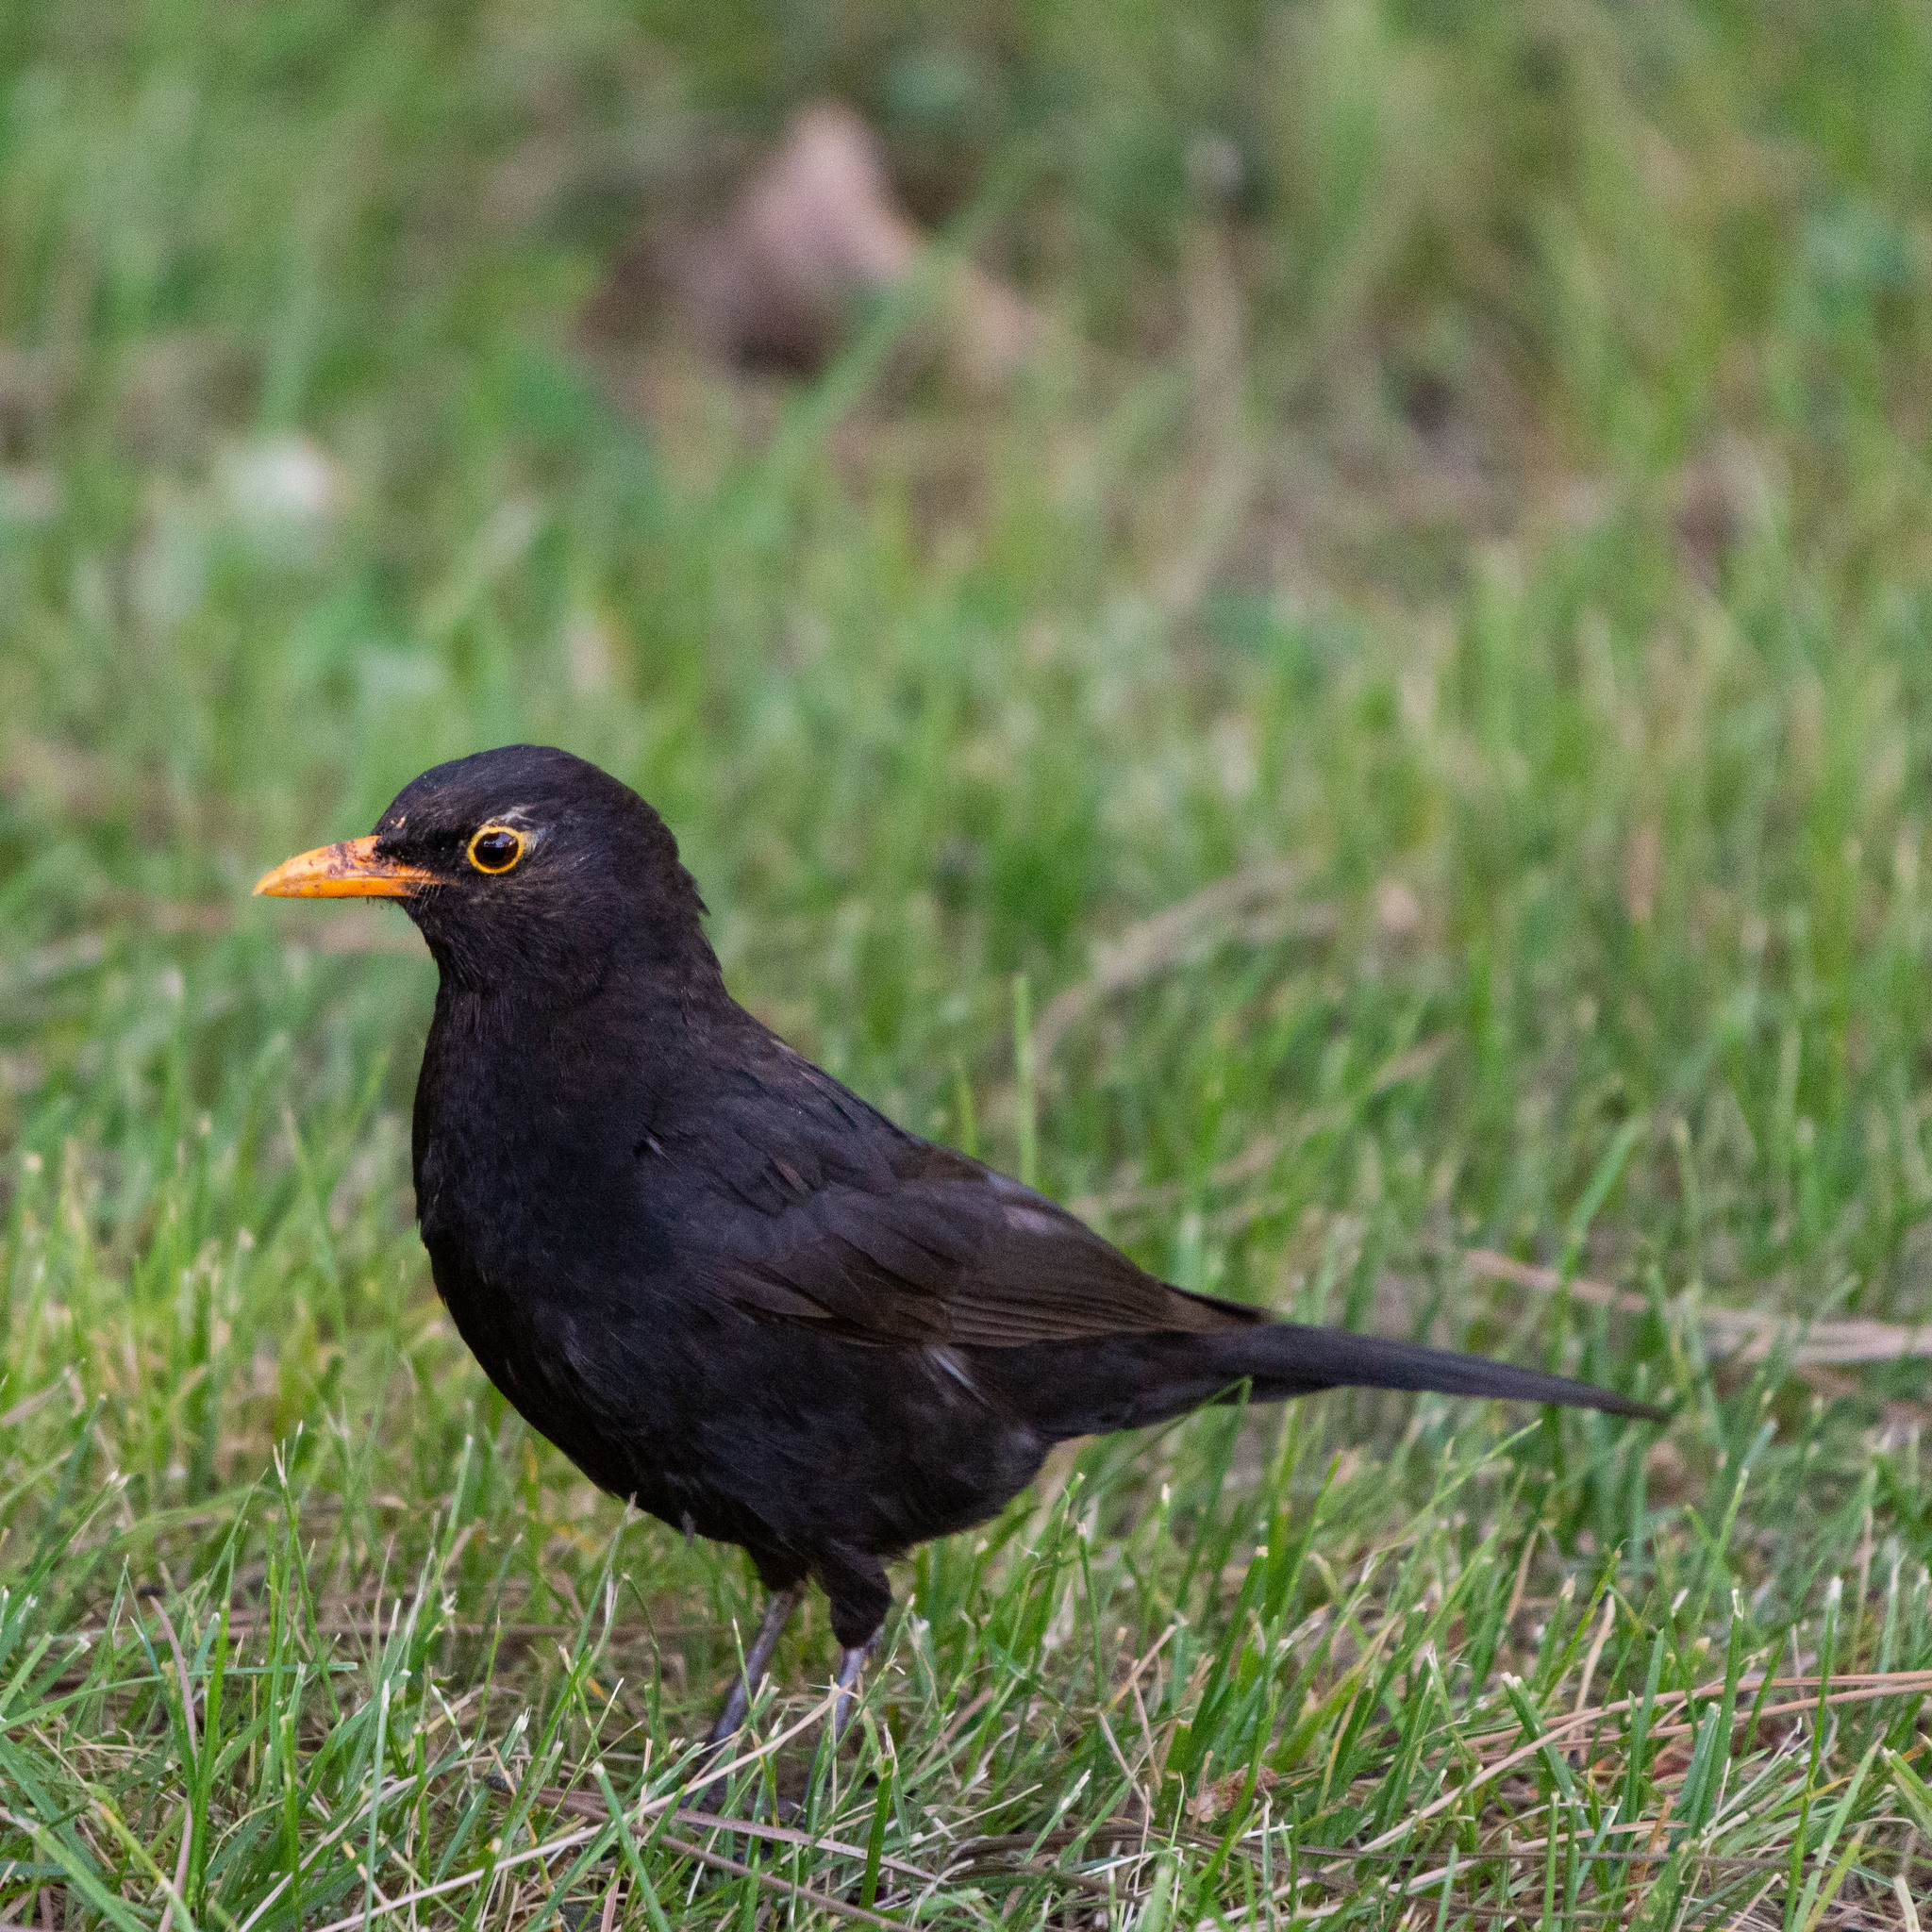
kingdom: Animalia
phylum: Chordata
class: Aves
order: Passeriformes
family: Turdidae
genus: Turdus
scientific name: Turdus merula
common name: Common blackbird
